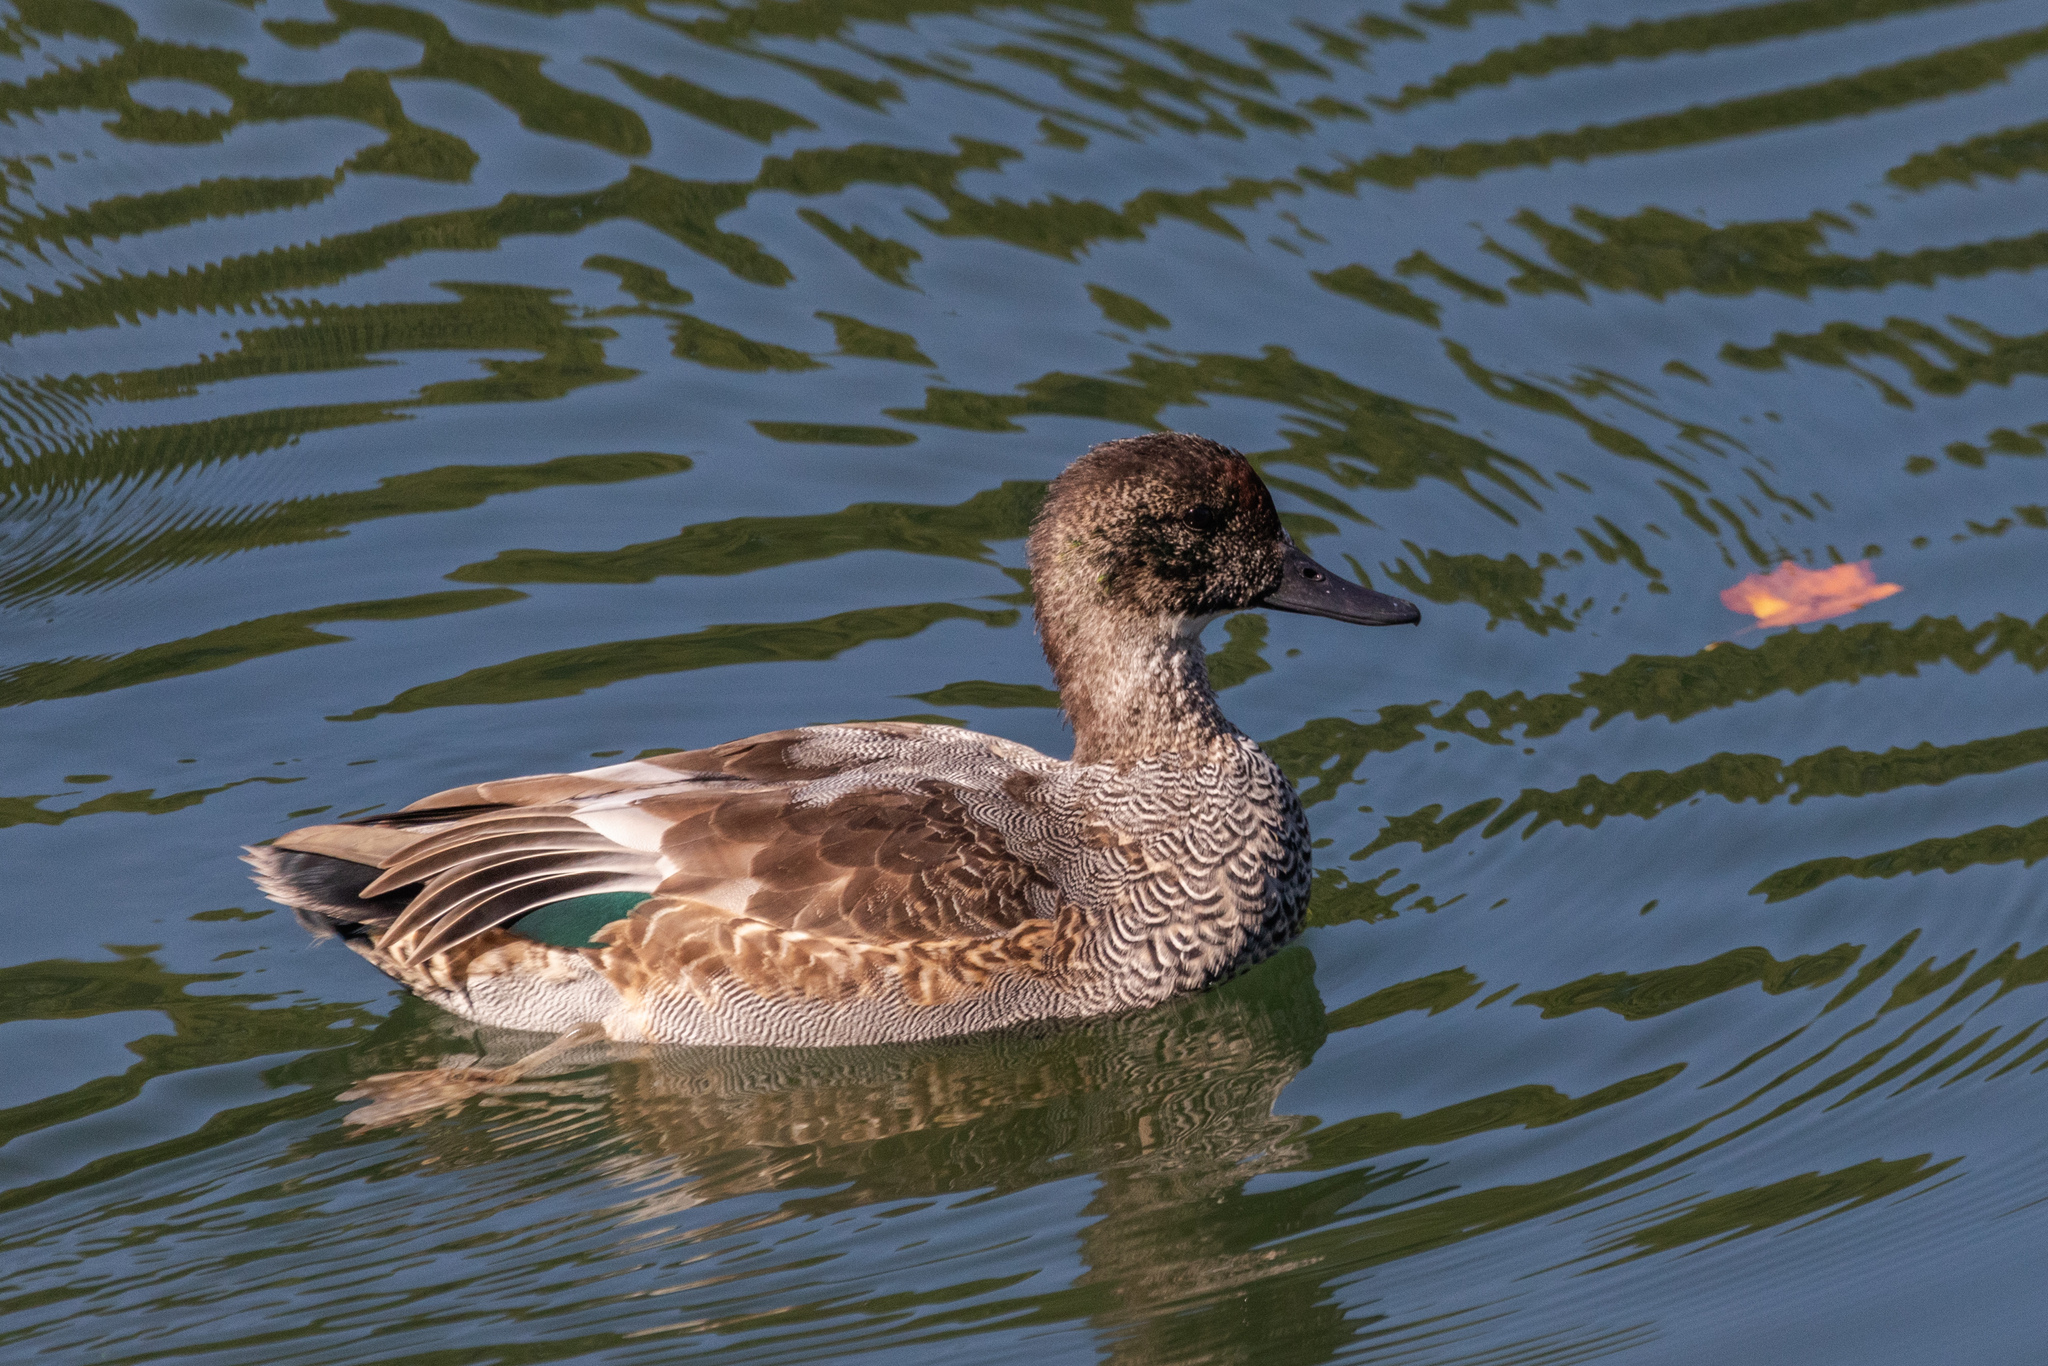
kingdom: Animalia
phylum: Chordata
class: Aves
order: Anseriformes
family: Anatidae
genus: Mareca
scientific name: Mareca falcata
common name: Falcated duck
